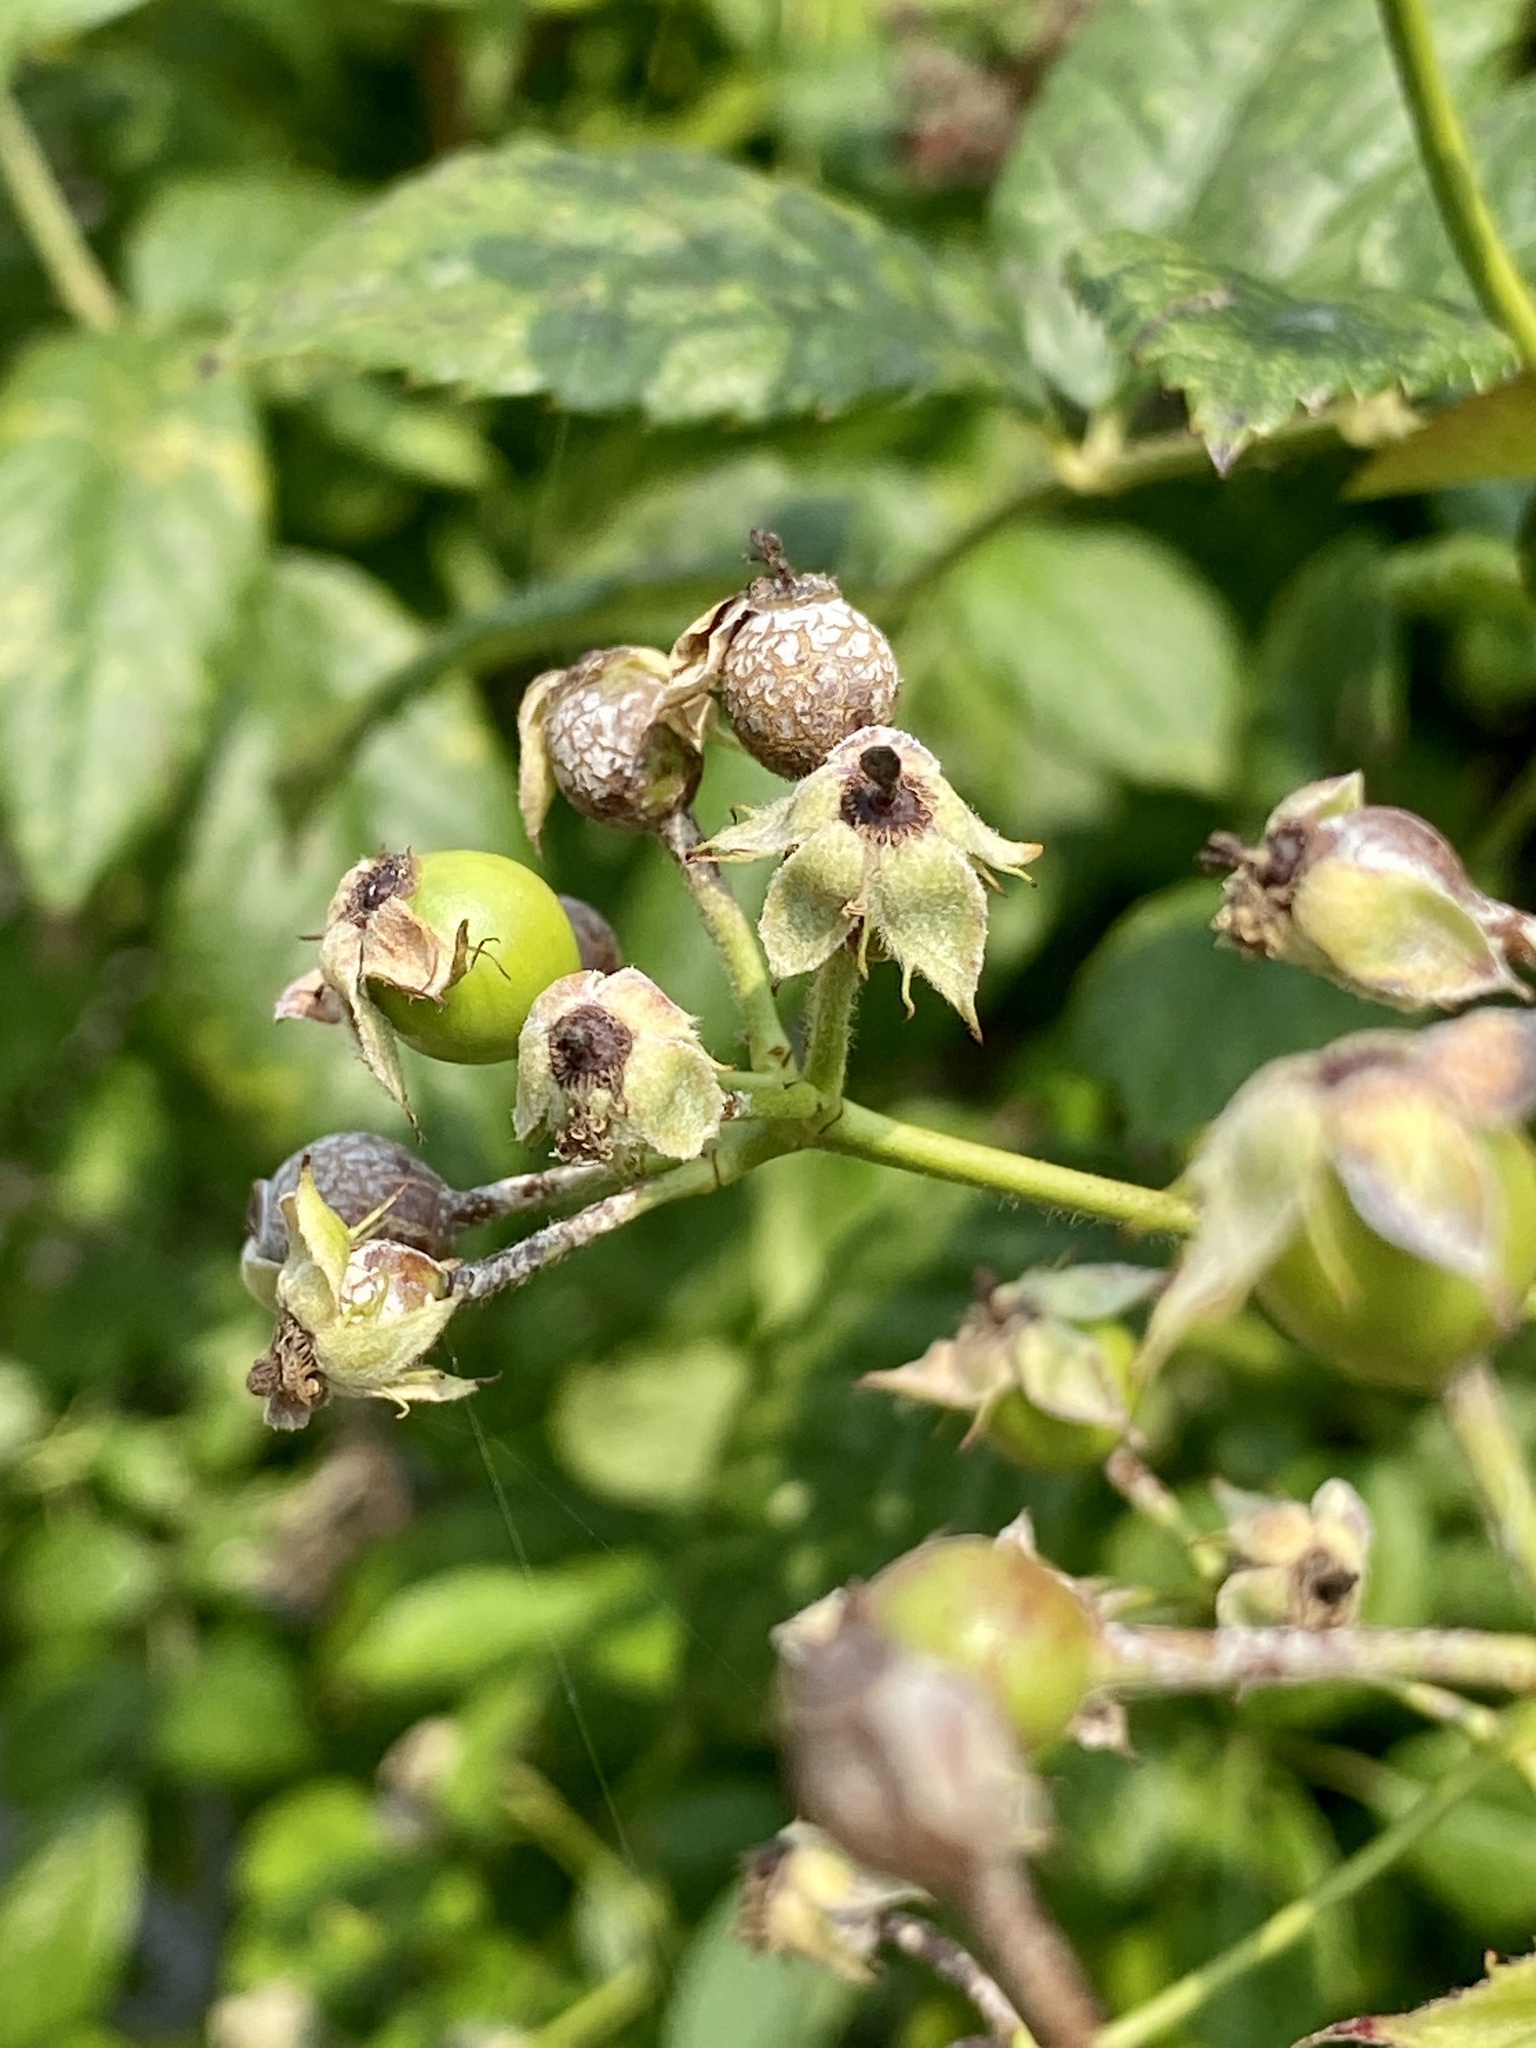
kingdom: Plantae
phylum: Tracheophyta
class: Magnoliopsida
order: Rosales
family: Rosaceae
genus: Rosa
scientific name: Rosa multiflora
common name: Multiflora rose
